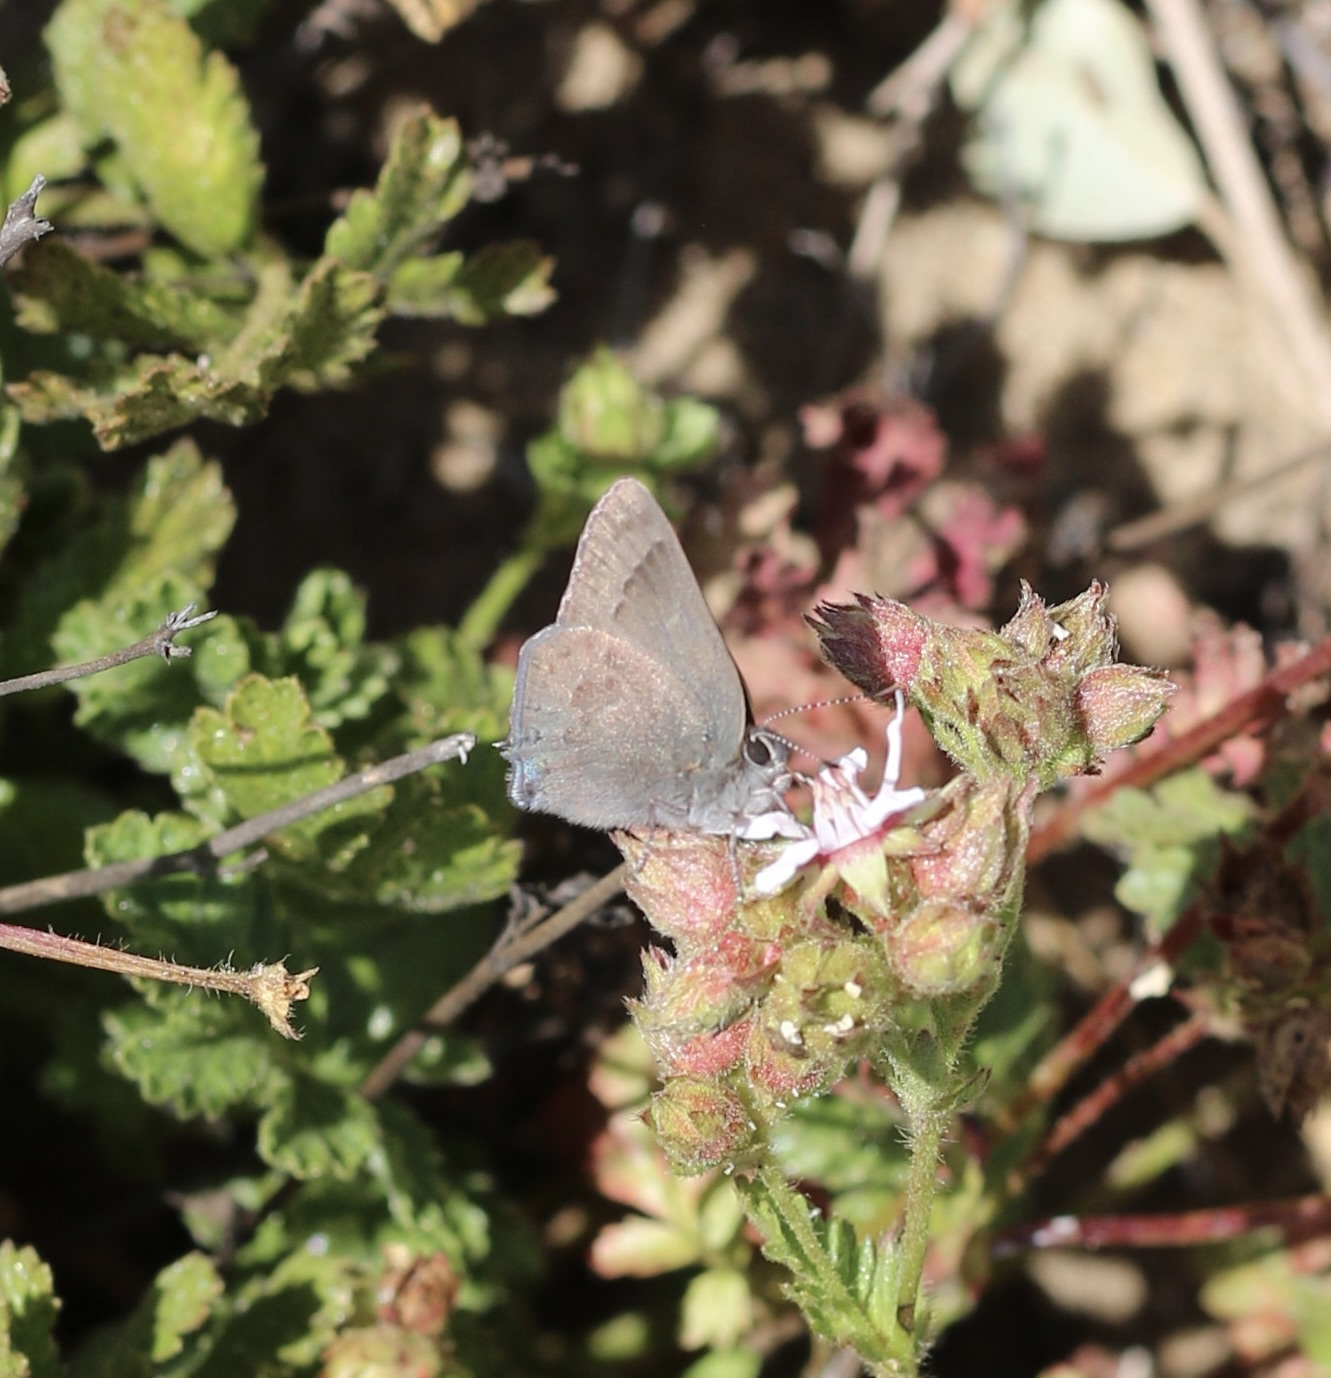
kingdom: Animalia
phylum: Arthropoda
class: Insecta
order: Lepidoptera
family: Lycaenidae
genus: Thecla
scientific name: Thecla tetra
